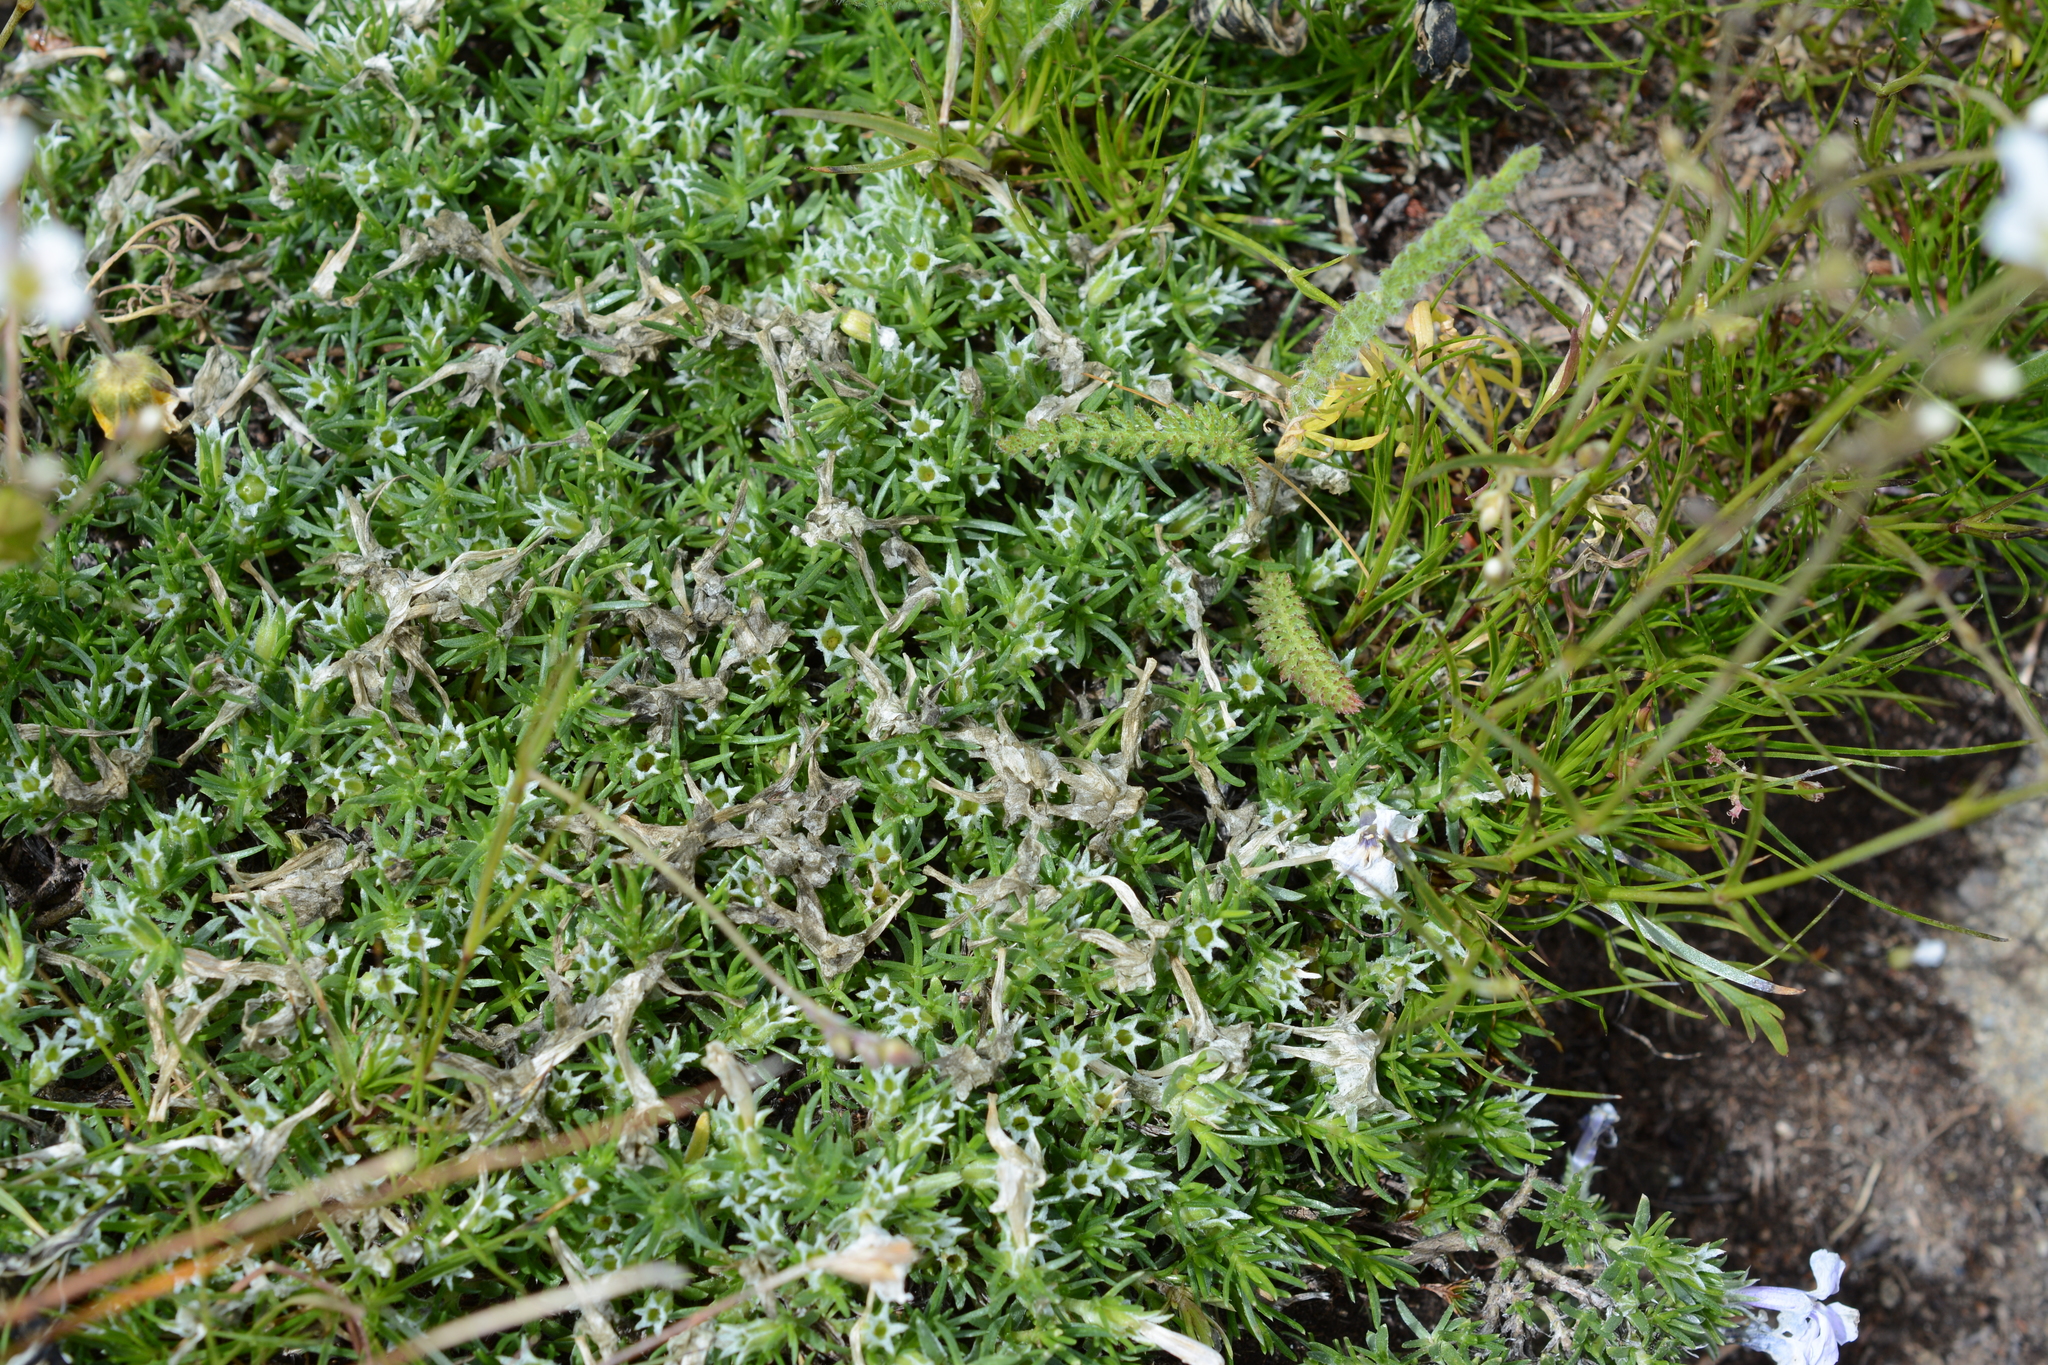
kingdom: Plantae
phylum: Tracheophyta
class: Magnoliopsida
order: Ericales
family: Polemoniaceae
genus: Phlox
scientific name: Phlox diffusa
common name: Mat phlox
